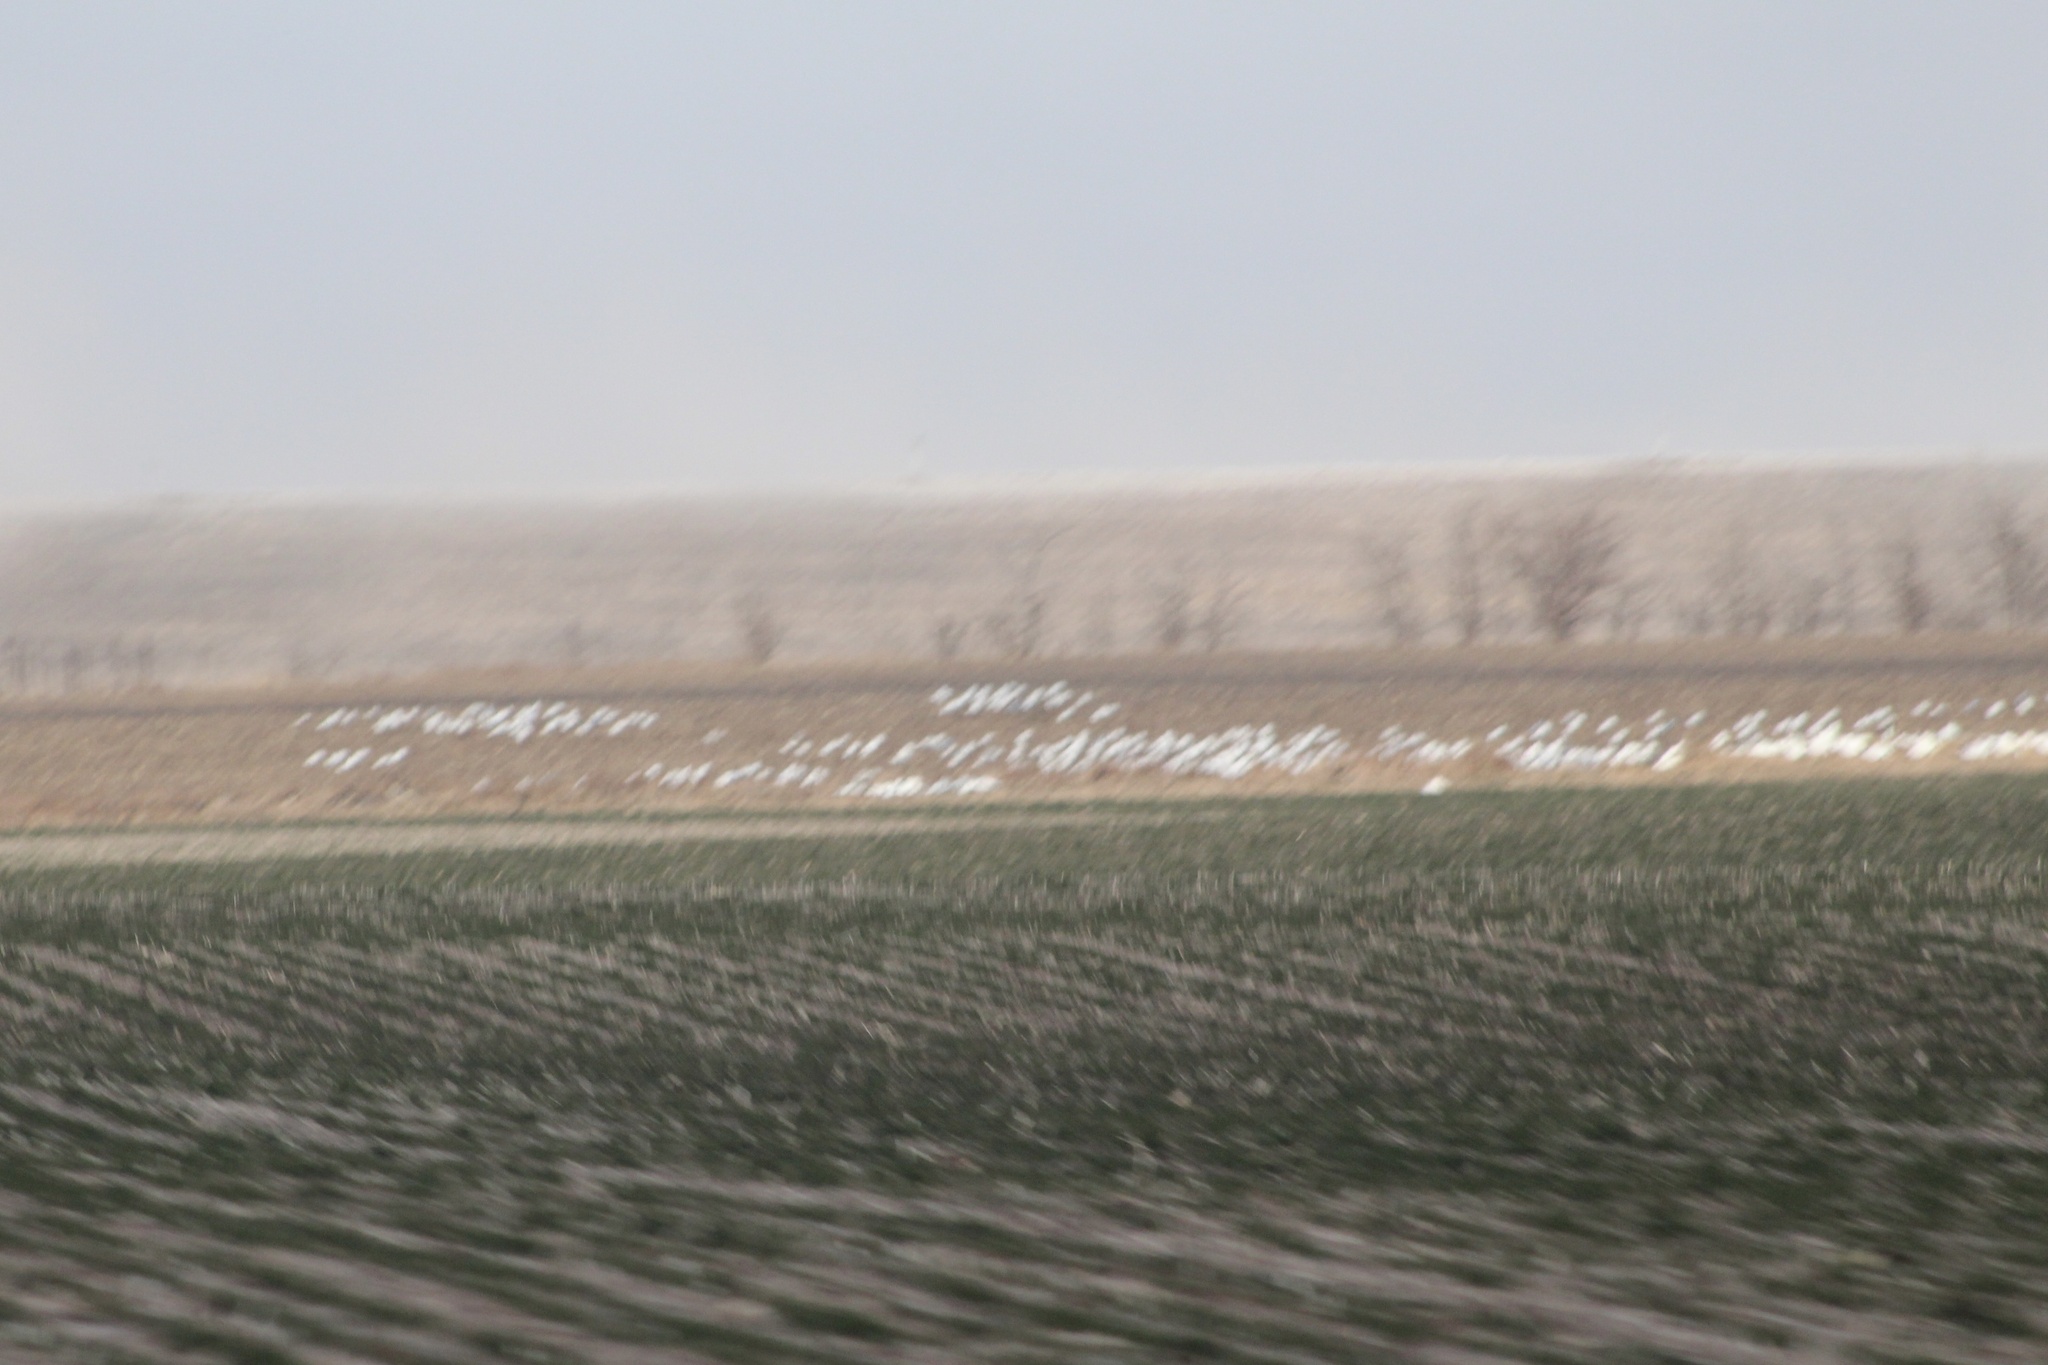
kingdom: Animalia
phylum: Chordata
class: Aves
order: Anseriformes
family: Anatidae
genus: Anser
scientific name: Anser caerulescens
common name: Snow goose
